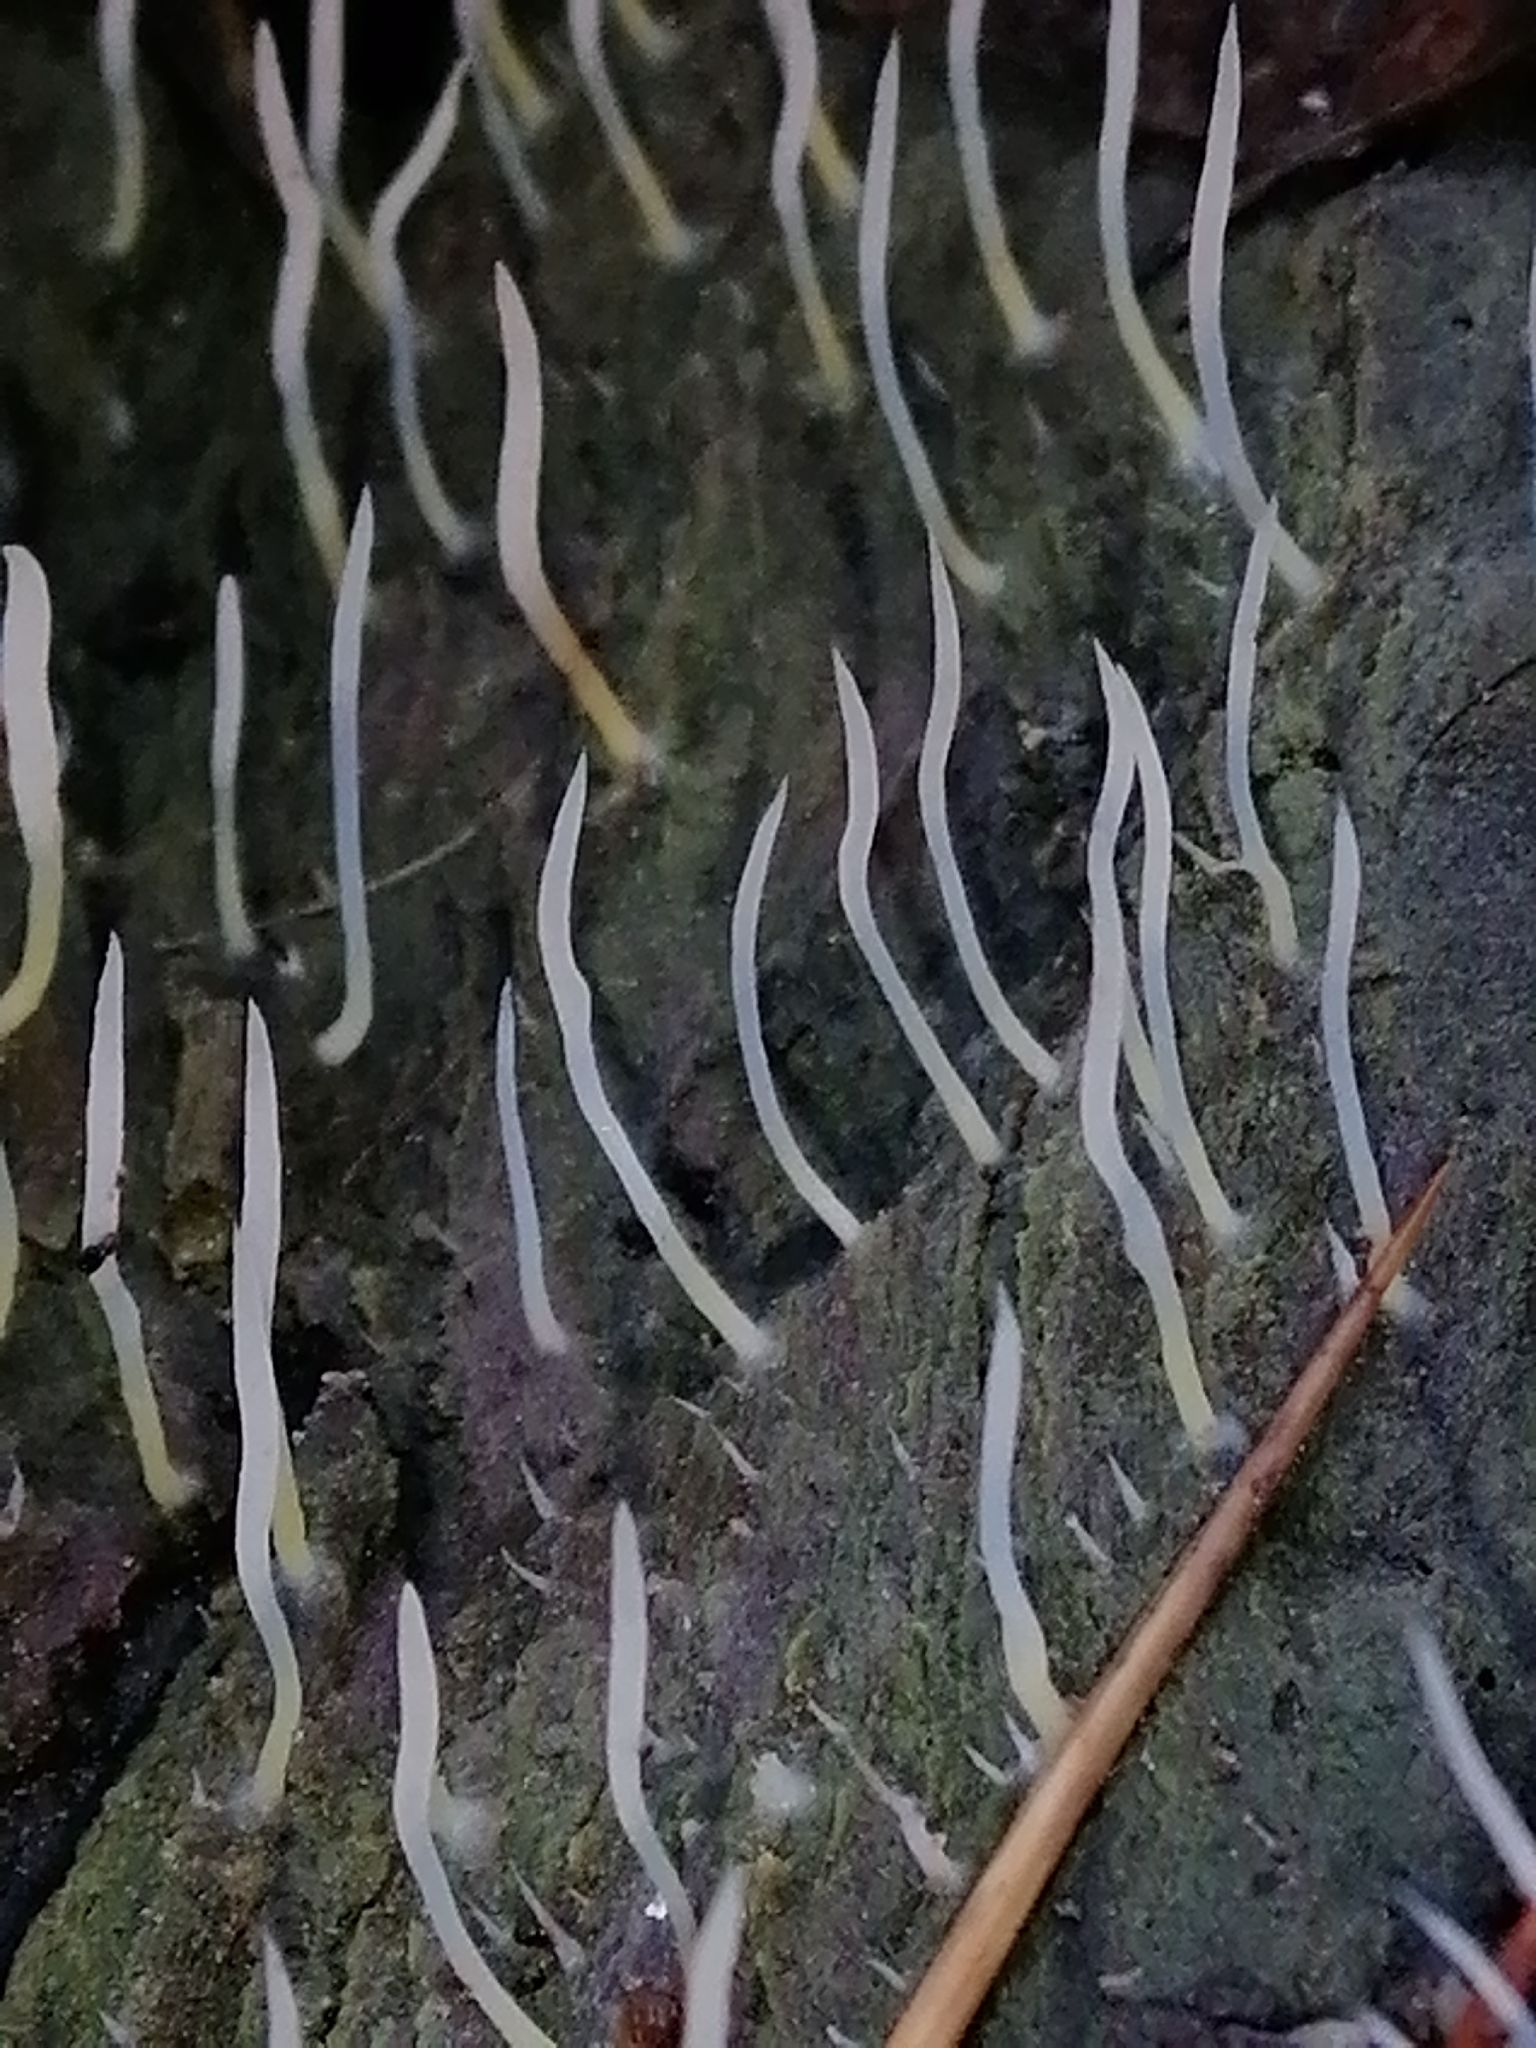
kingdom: Fungi
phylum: Basidiomycota
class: Agaricomycetes
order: Cantharellales
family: Hydnaceae
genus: Multiclavula
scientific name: Multiclavula mucida
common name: White green-algae coral
